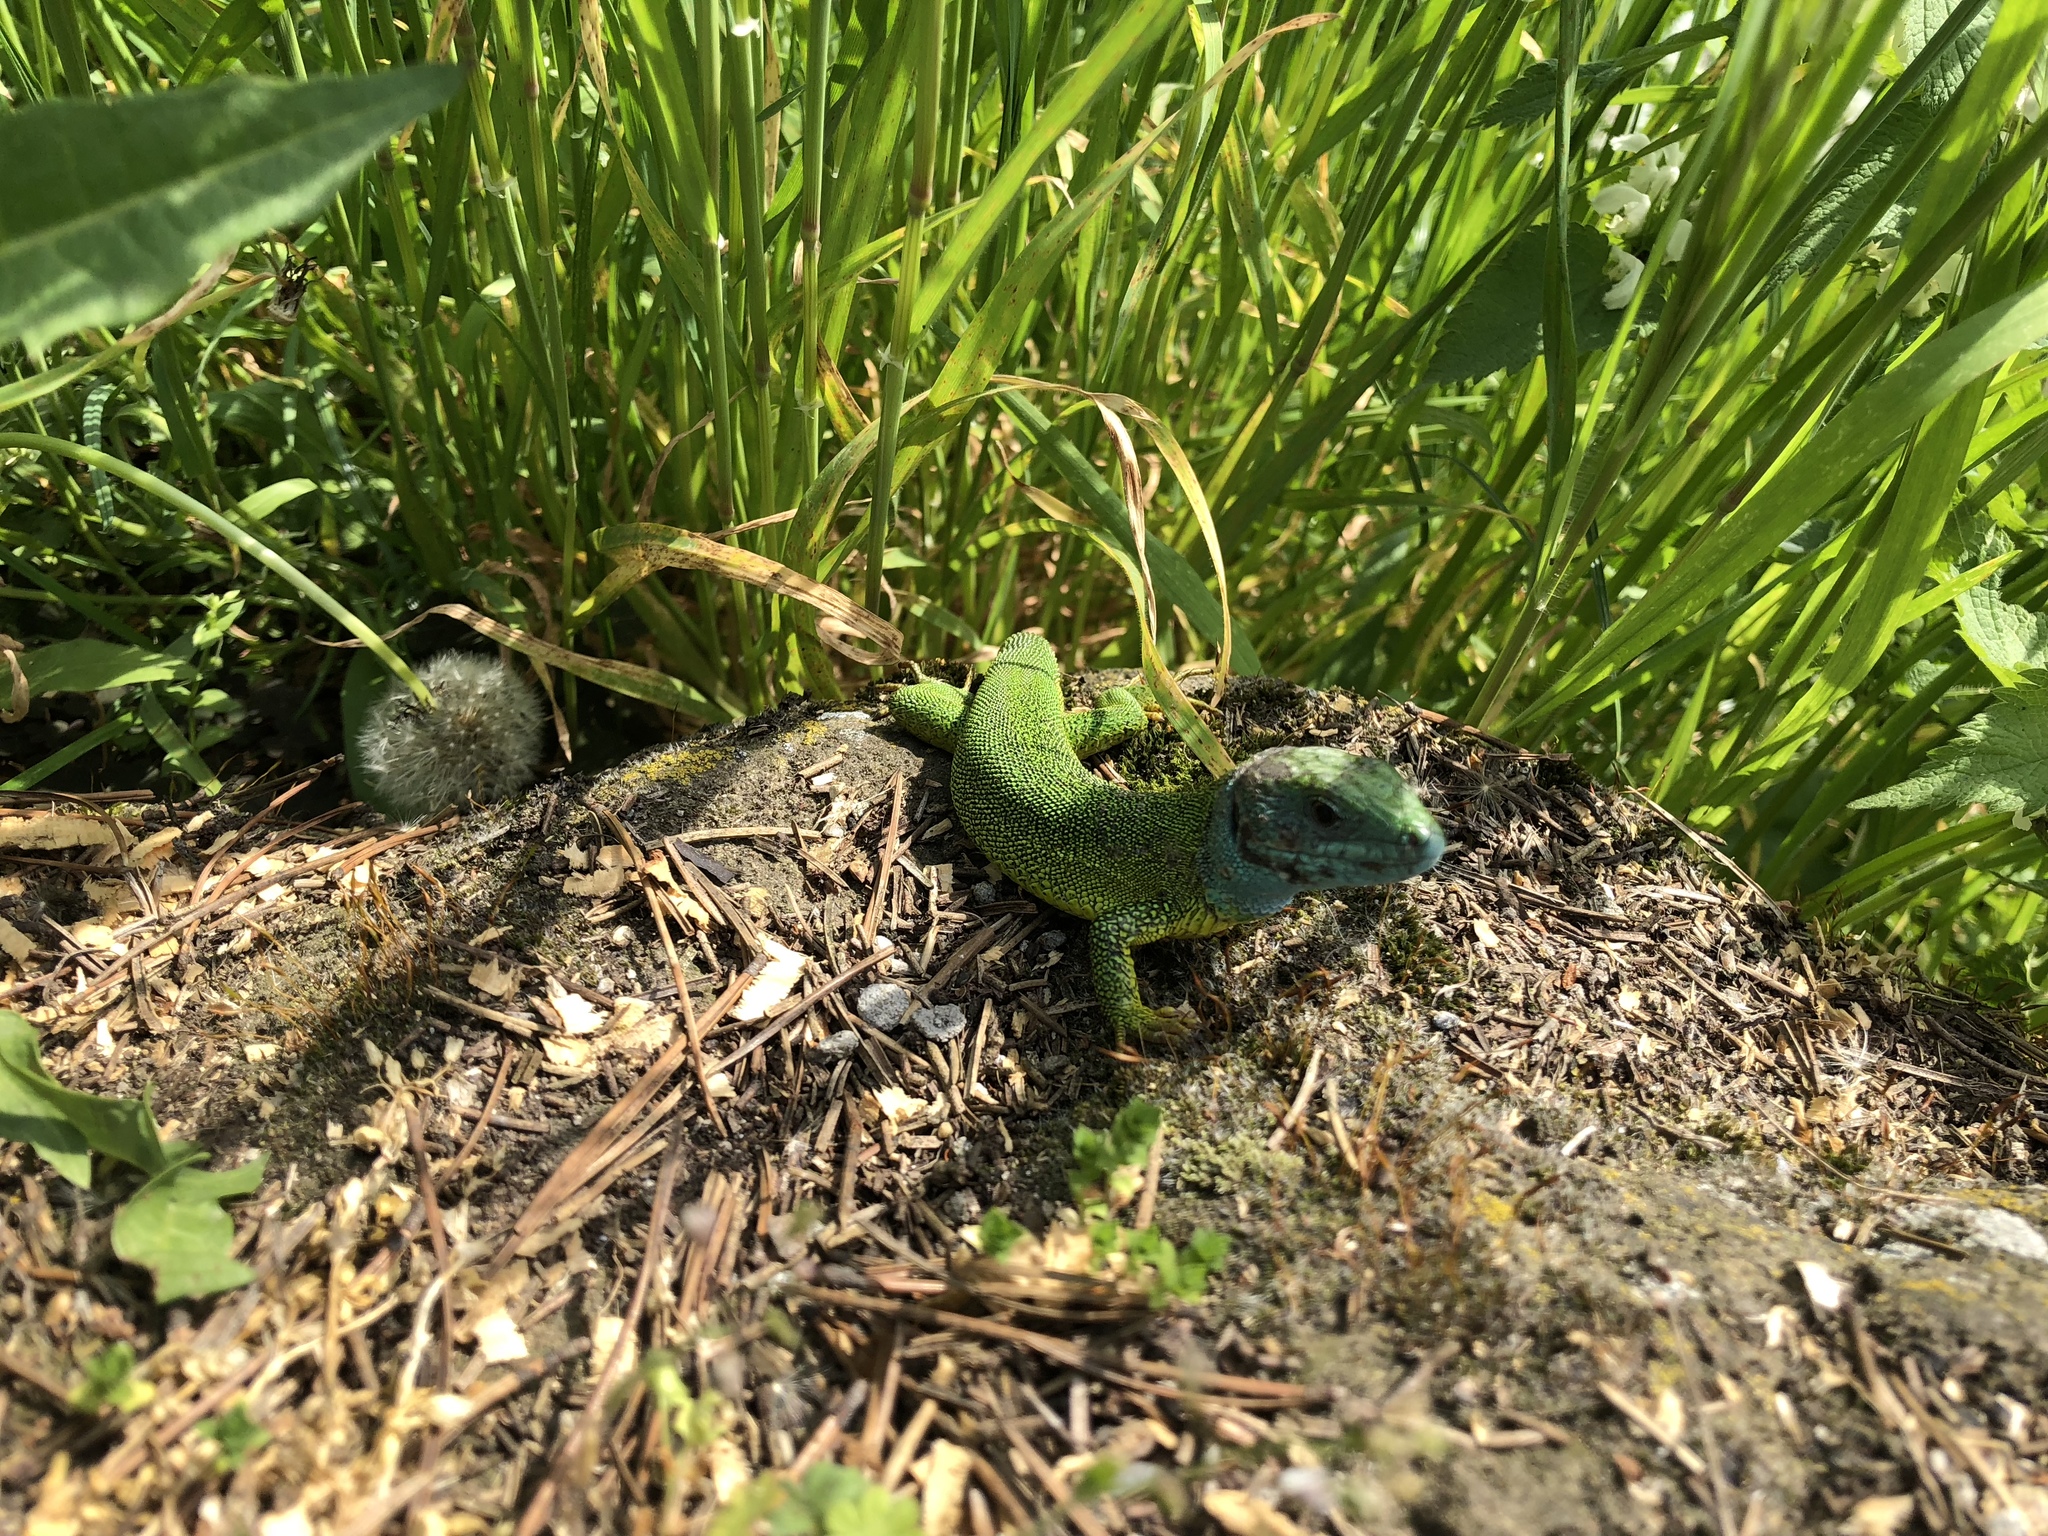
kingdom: Animalia
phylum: Chordata
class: Squamata
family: Lacertidae
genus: Lacerta
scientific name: Lacerta viridis
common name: European green lizard
